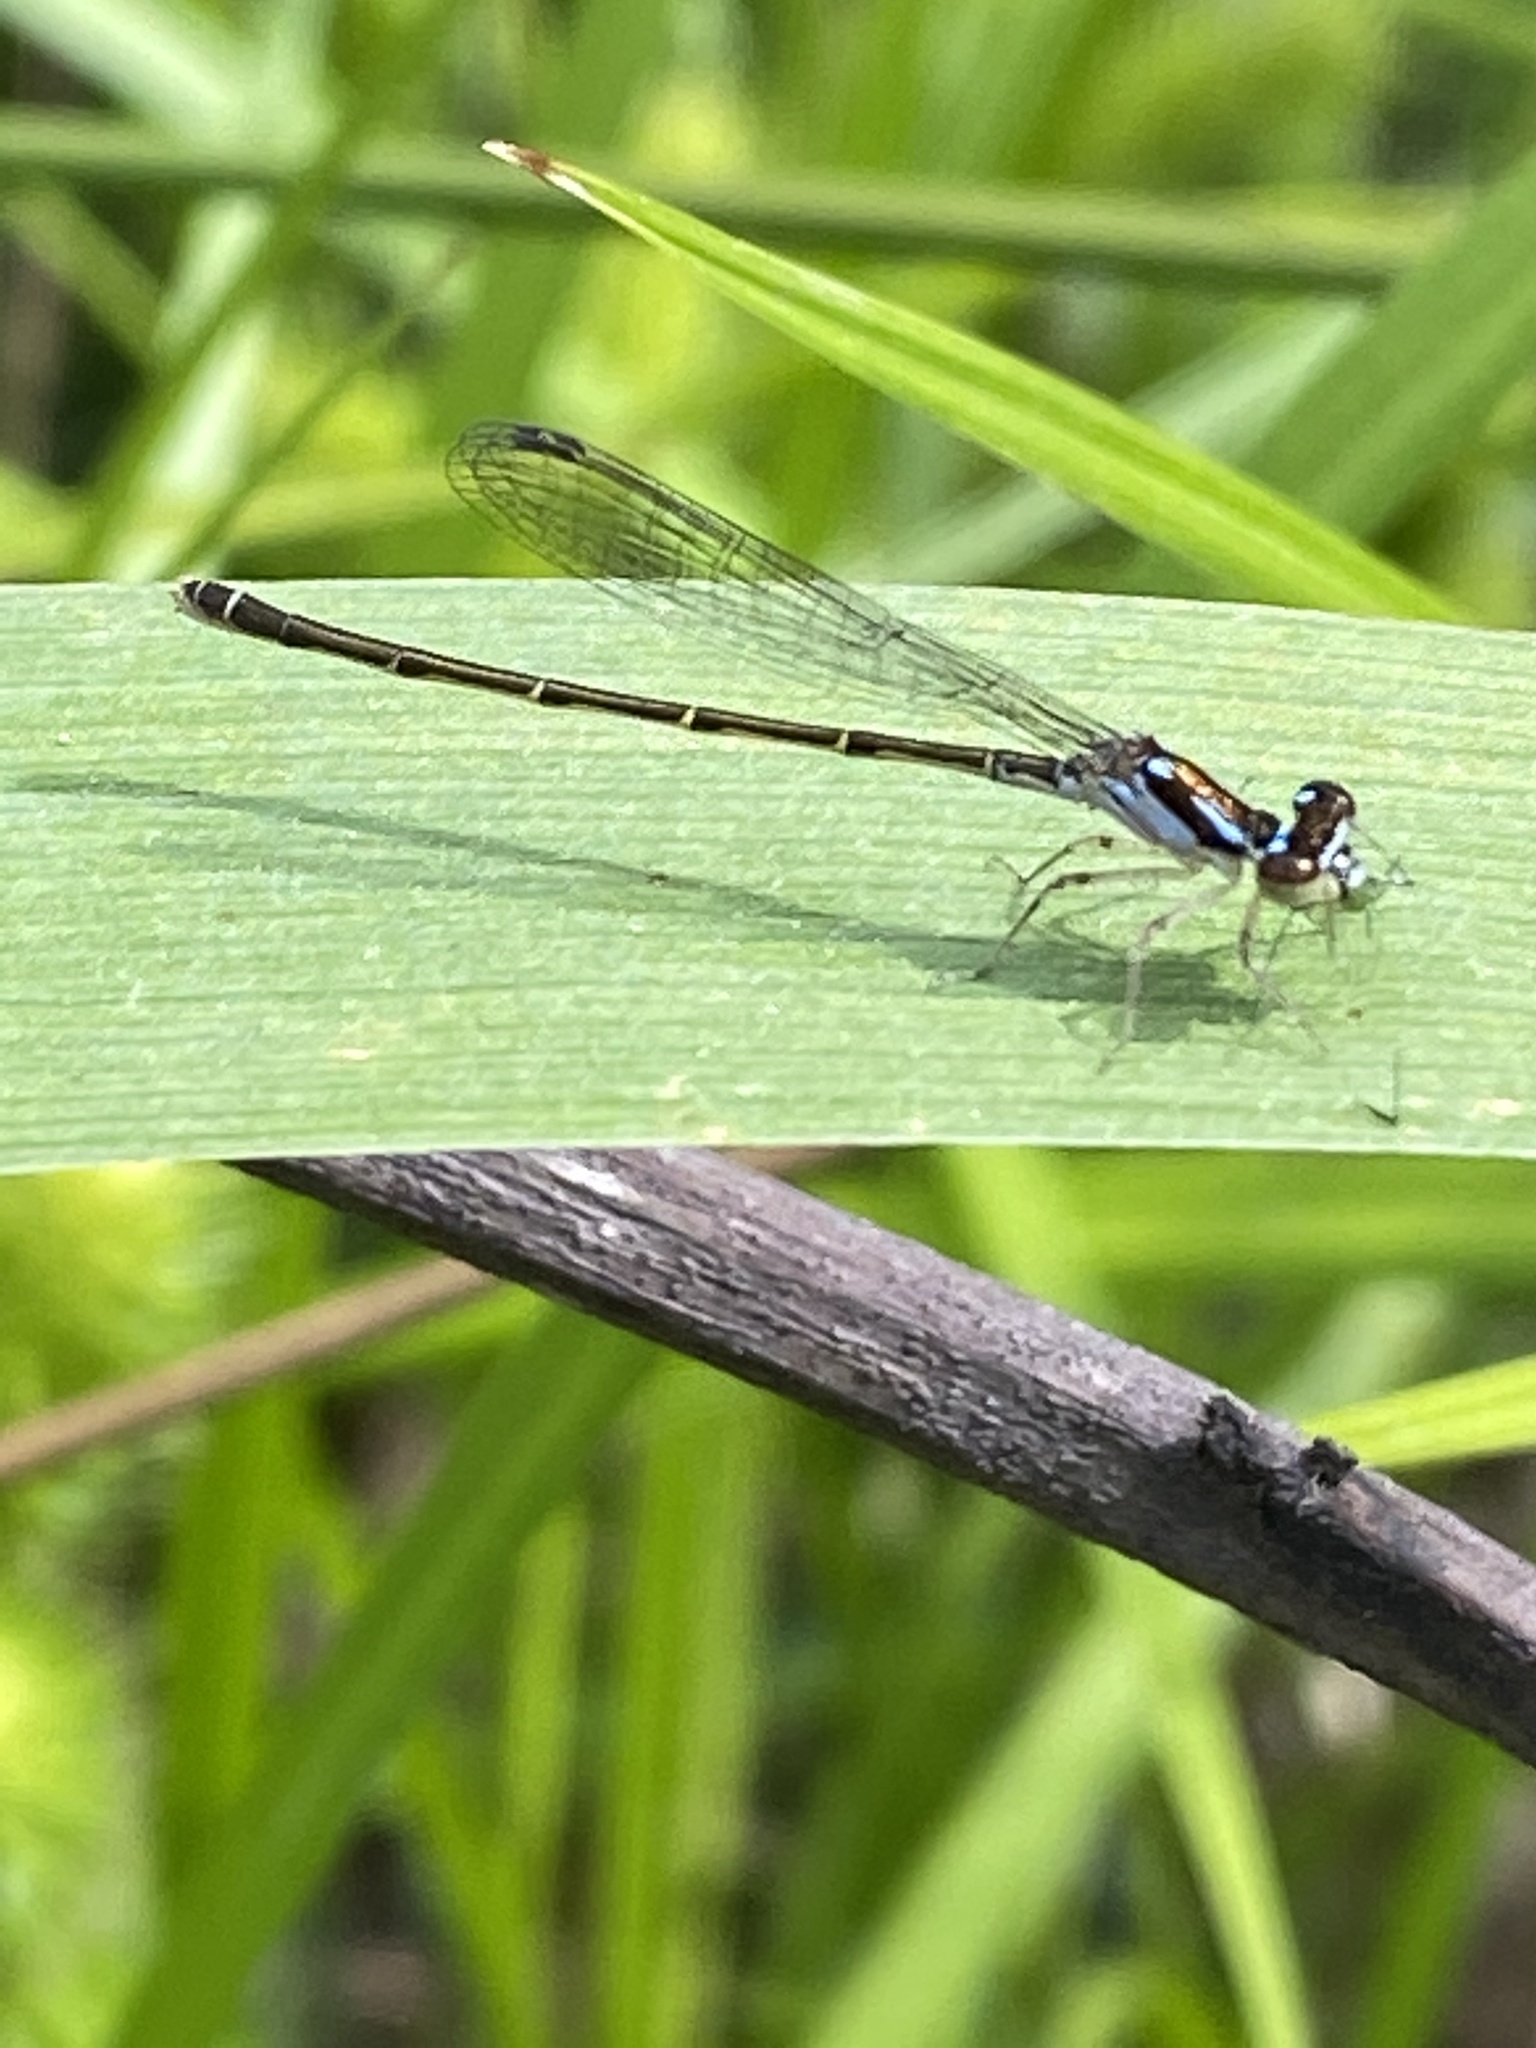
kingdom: Animalia
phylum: Arthropoda
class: Insecta
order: Odonata
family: Coenagrionidae
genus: Ischnura
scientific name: Ischnura posita
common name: Fragile forktail
